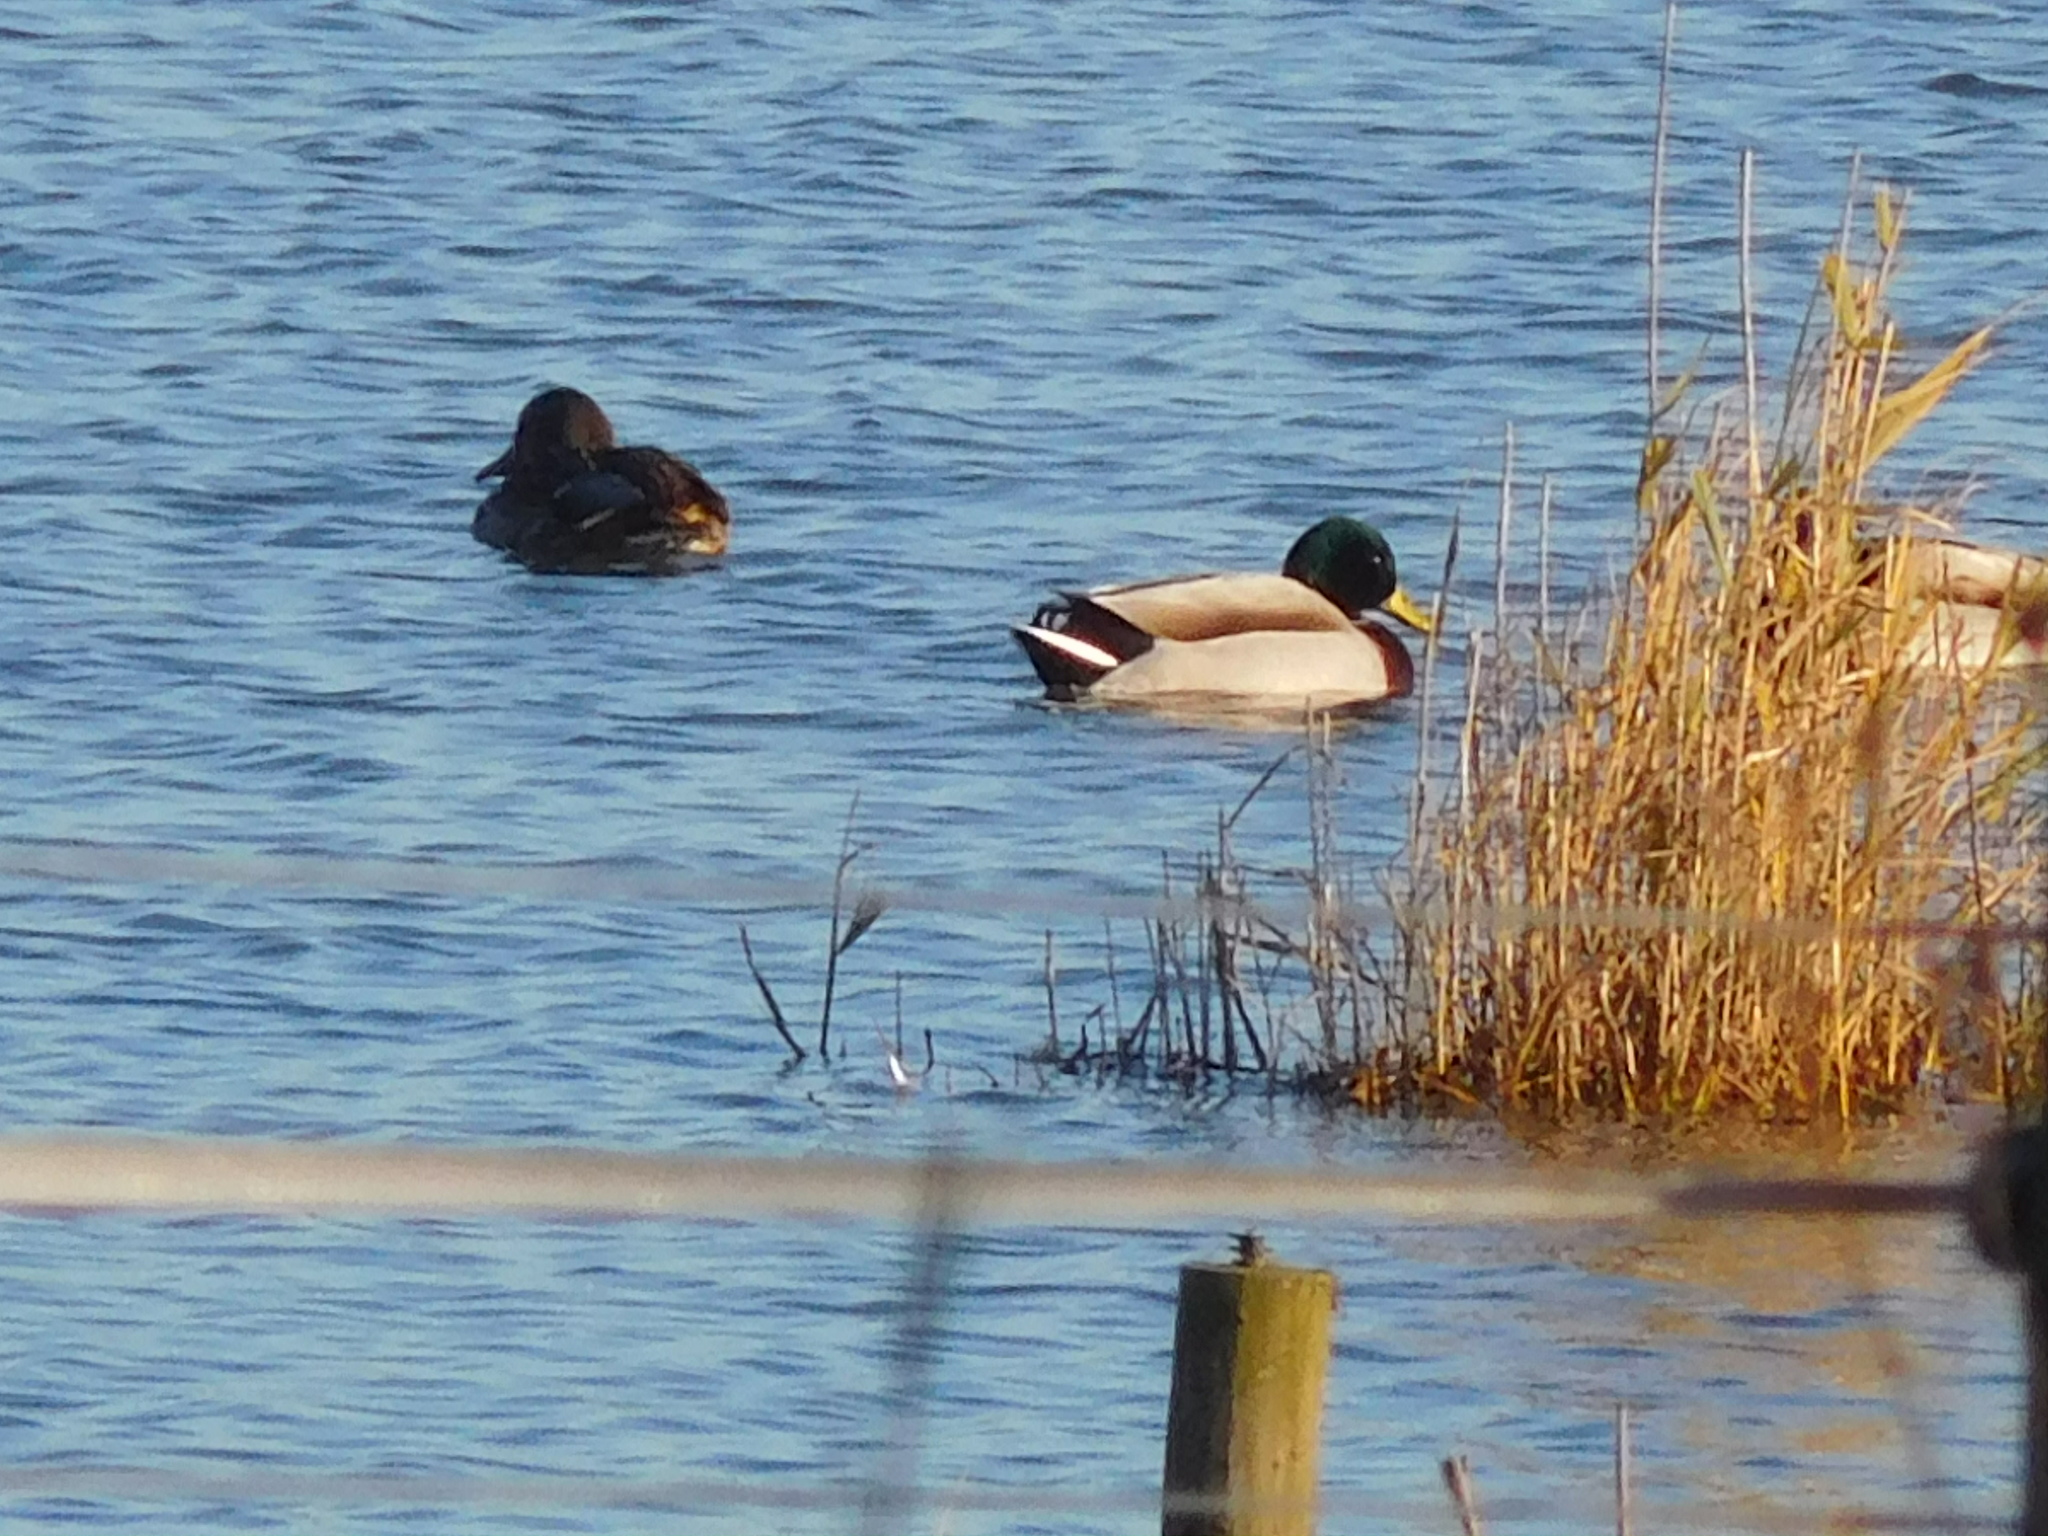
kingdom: Animalia
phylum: Chordata
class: Aves
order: Anseriformes
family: Anatidae
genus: Anas
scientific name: Anas platyrhynchos
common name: Mallard
